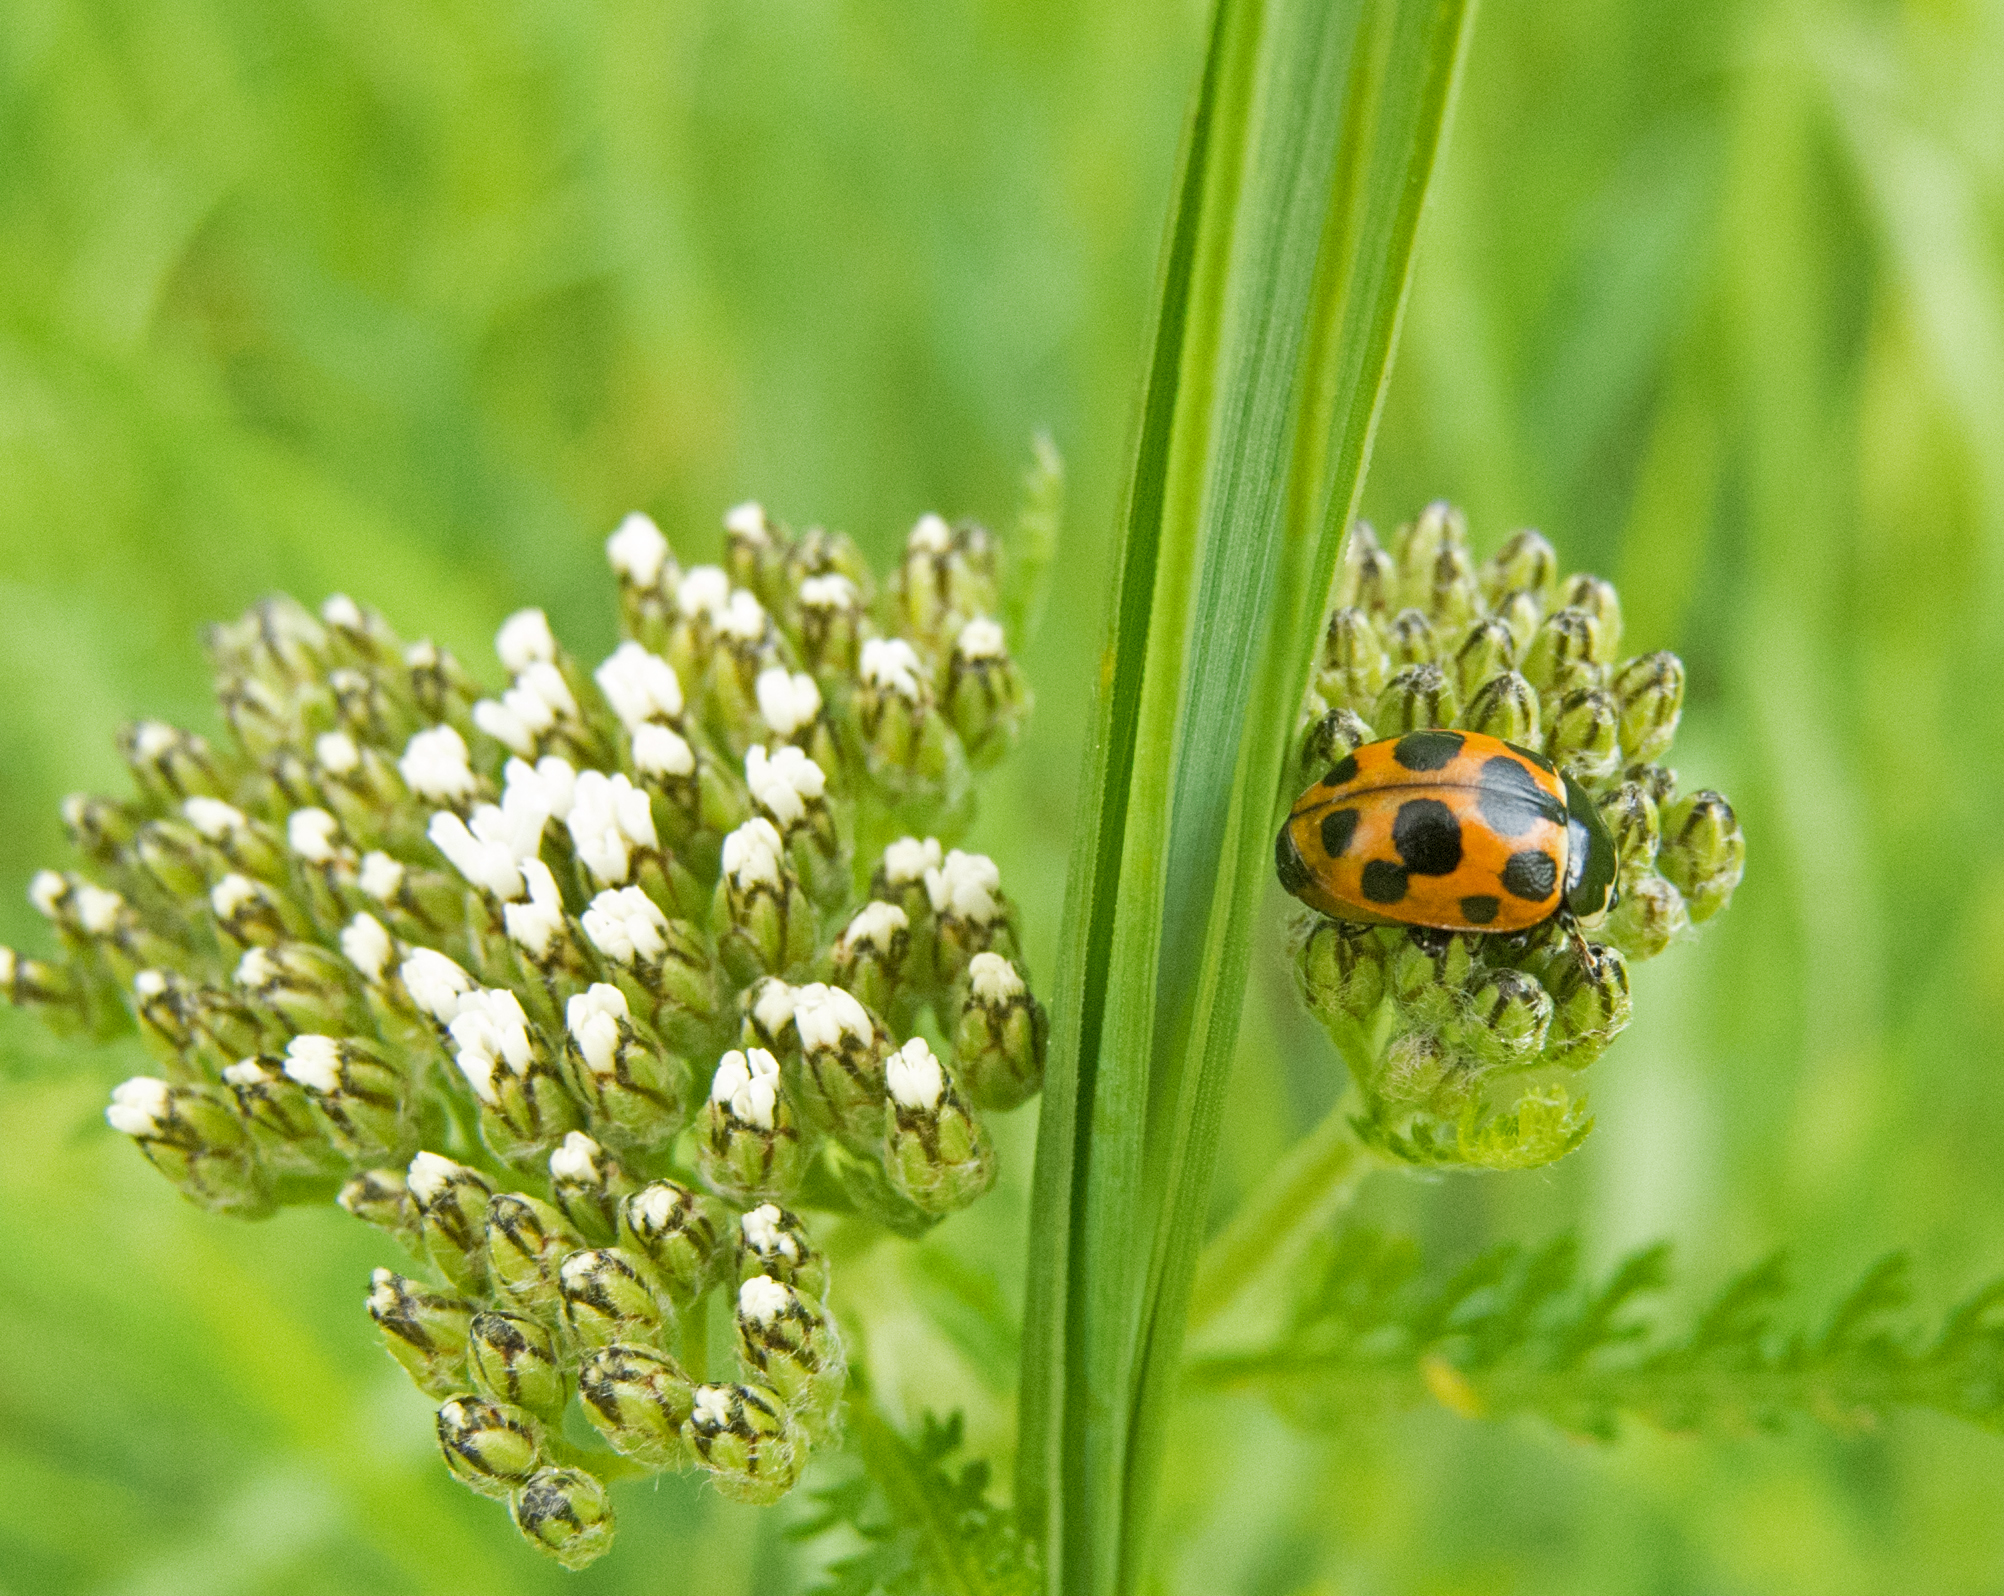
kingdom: Animalia
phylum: Arthropoda
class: Insecta
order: Coleoptera
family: Coccinellidae
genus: Ceratomegilla
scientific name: Ceratomegilla notata
